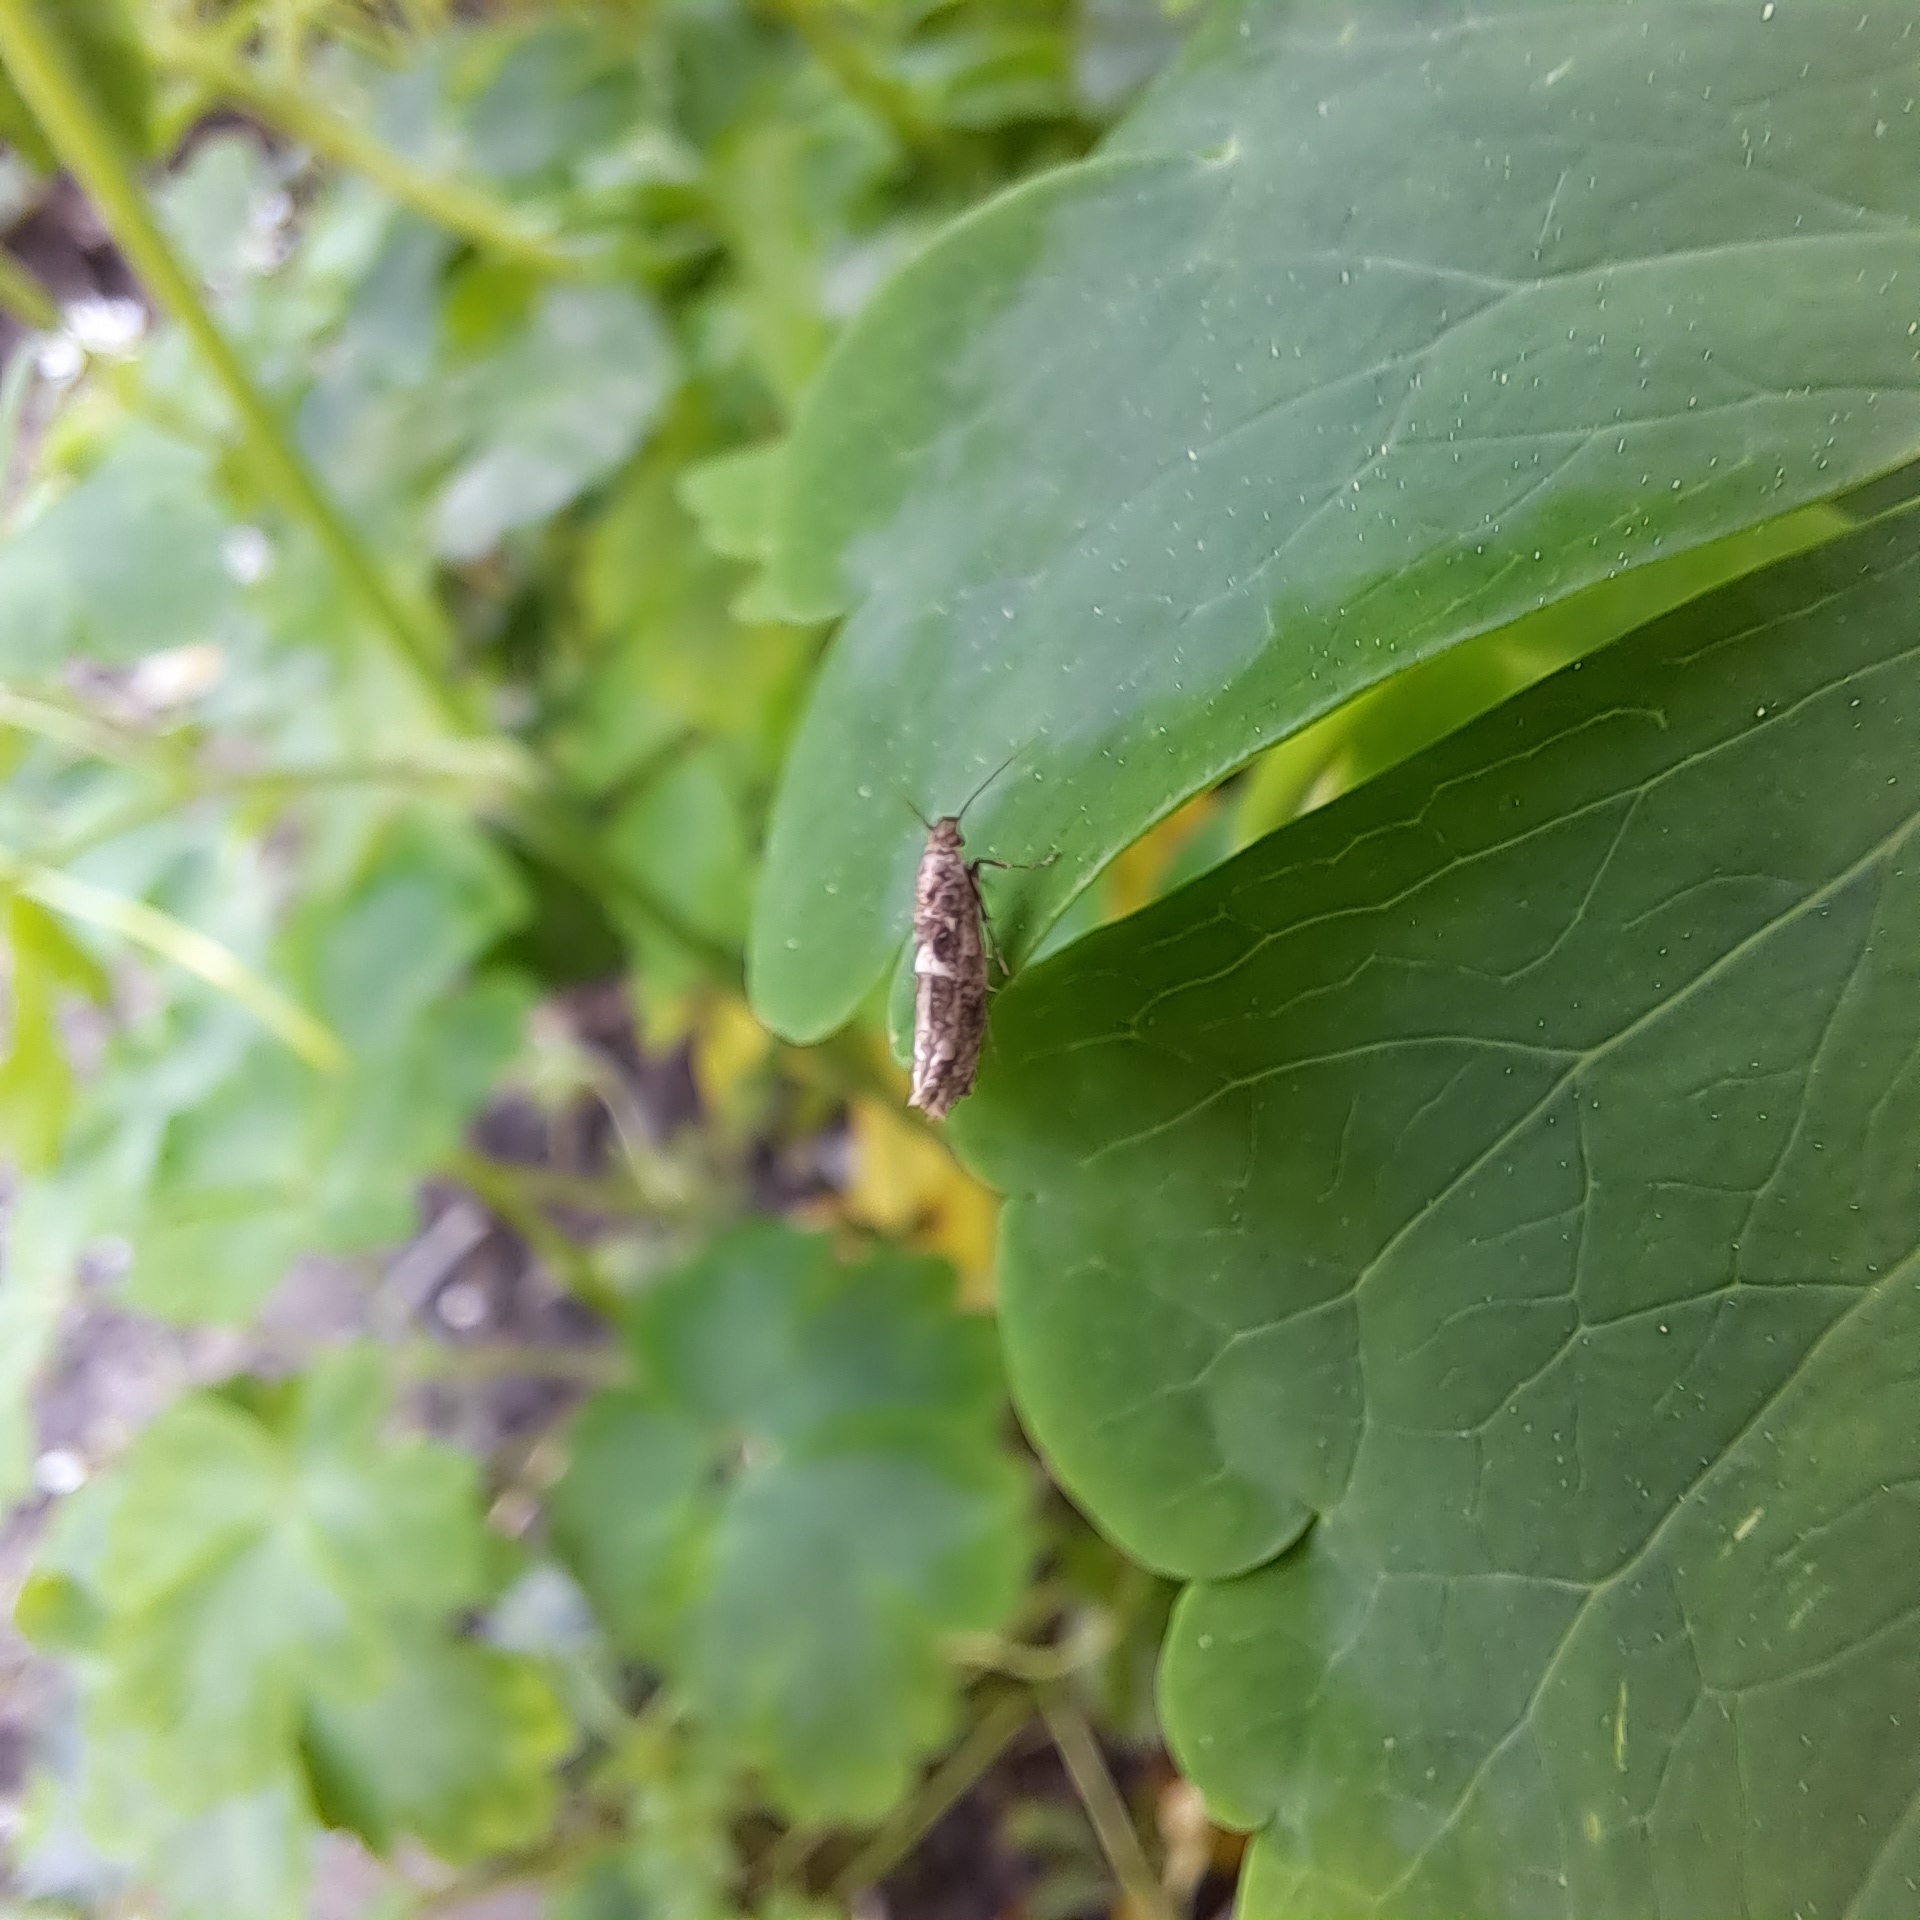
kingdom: Animalia
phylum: Arthropoda
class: Insecta
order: Lepidoptera
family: Glyphipterigidae
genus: Acrolepia
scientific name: Acrolepia assectella
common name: Onion leaf miner
